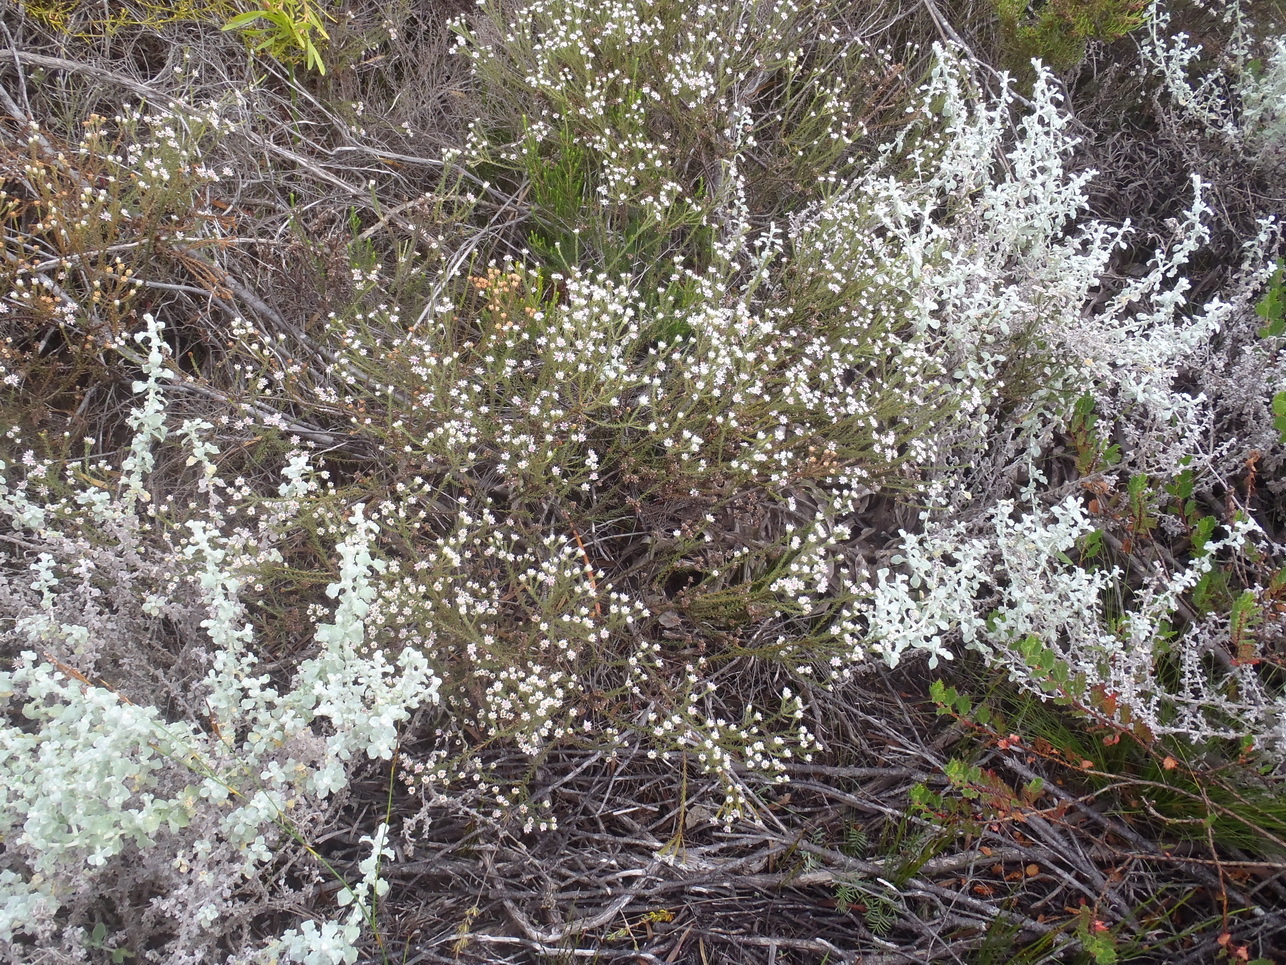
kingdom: Plantae
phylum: Tracheophyta
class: Magnoliopsida
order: Bruniales
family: Bruniaceae
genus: Staavia
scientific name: Staavia radiata
